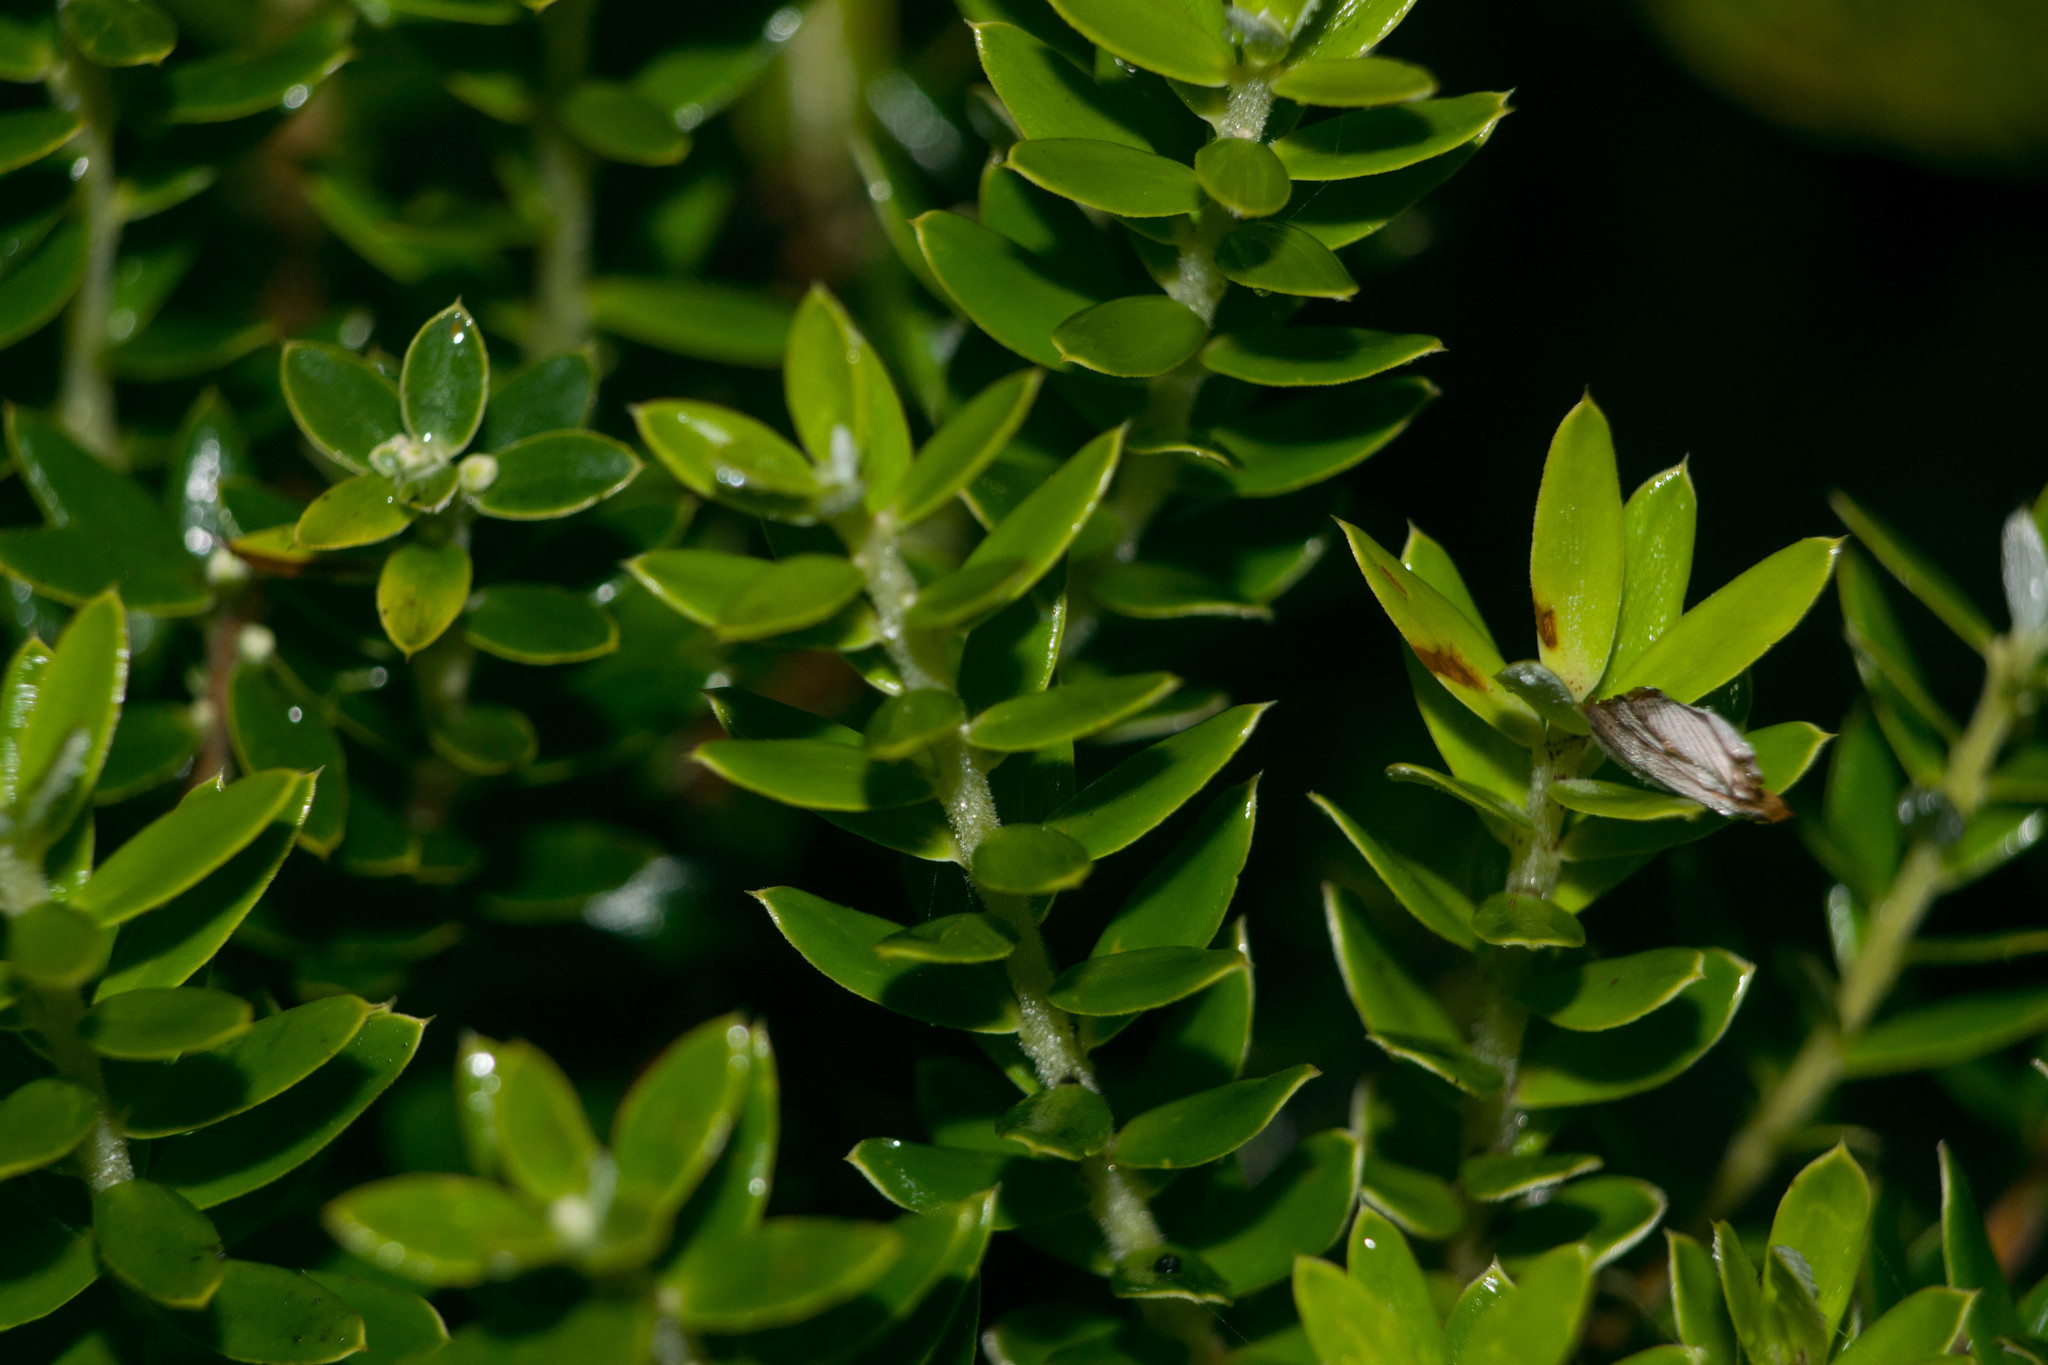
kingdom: Plantae
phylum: Tracheophyta
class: Magnoliopsida
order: Ericales
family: Ericaceae
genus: Leptecophylla
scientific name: Leptecophylla tameiameiae
